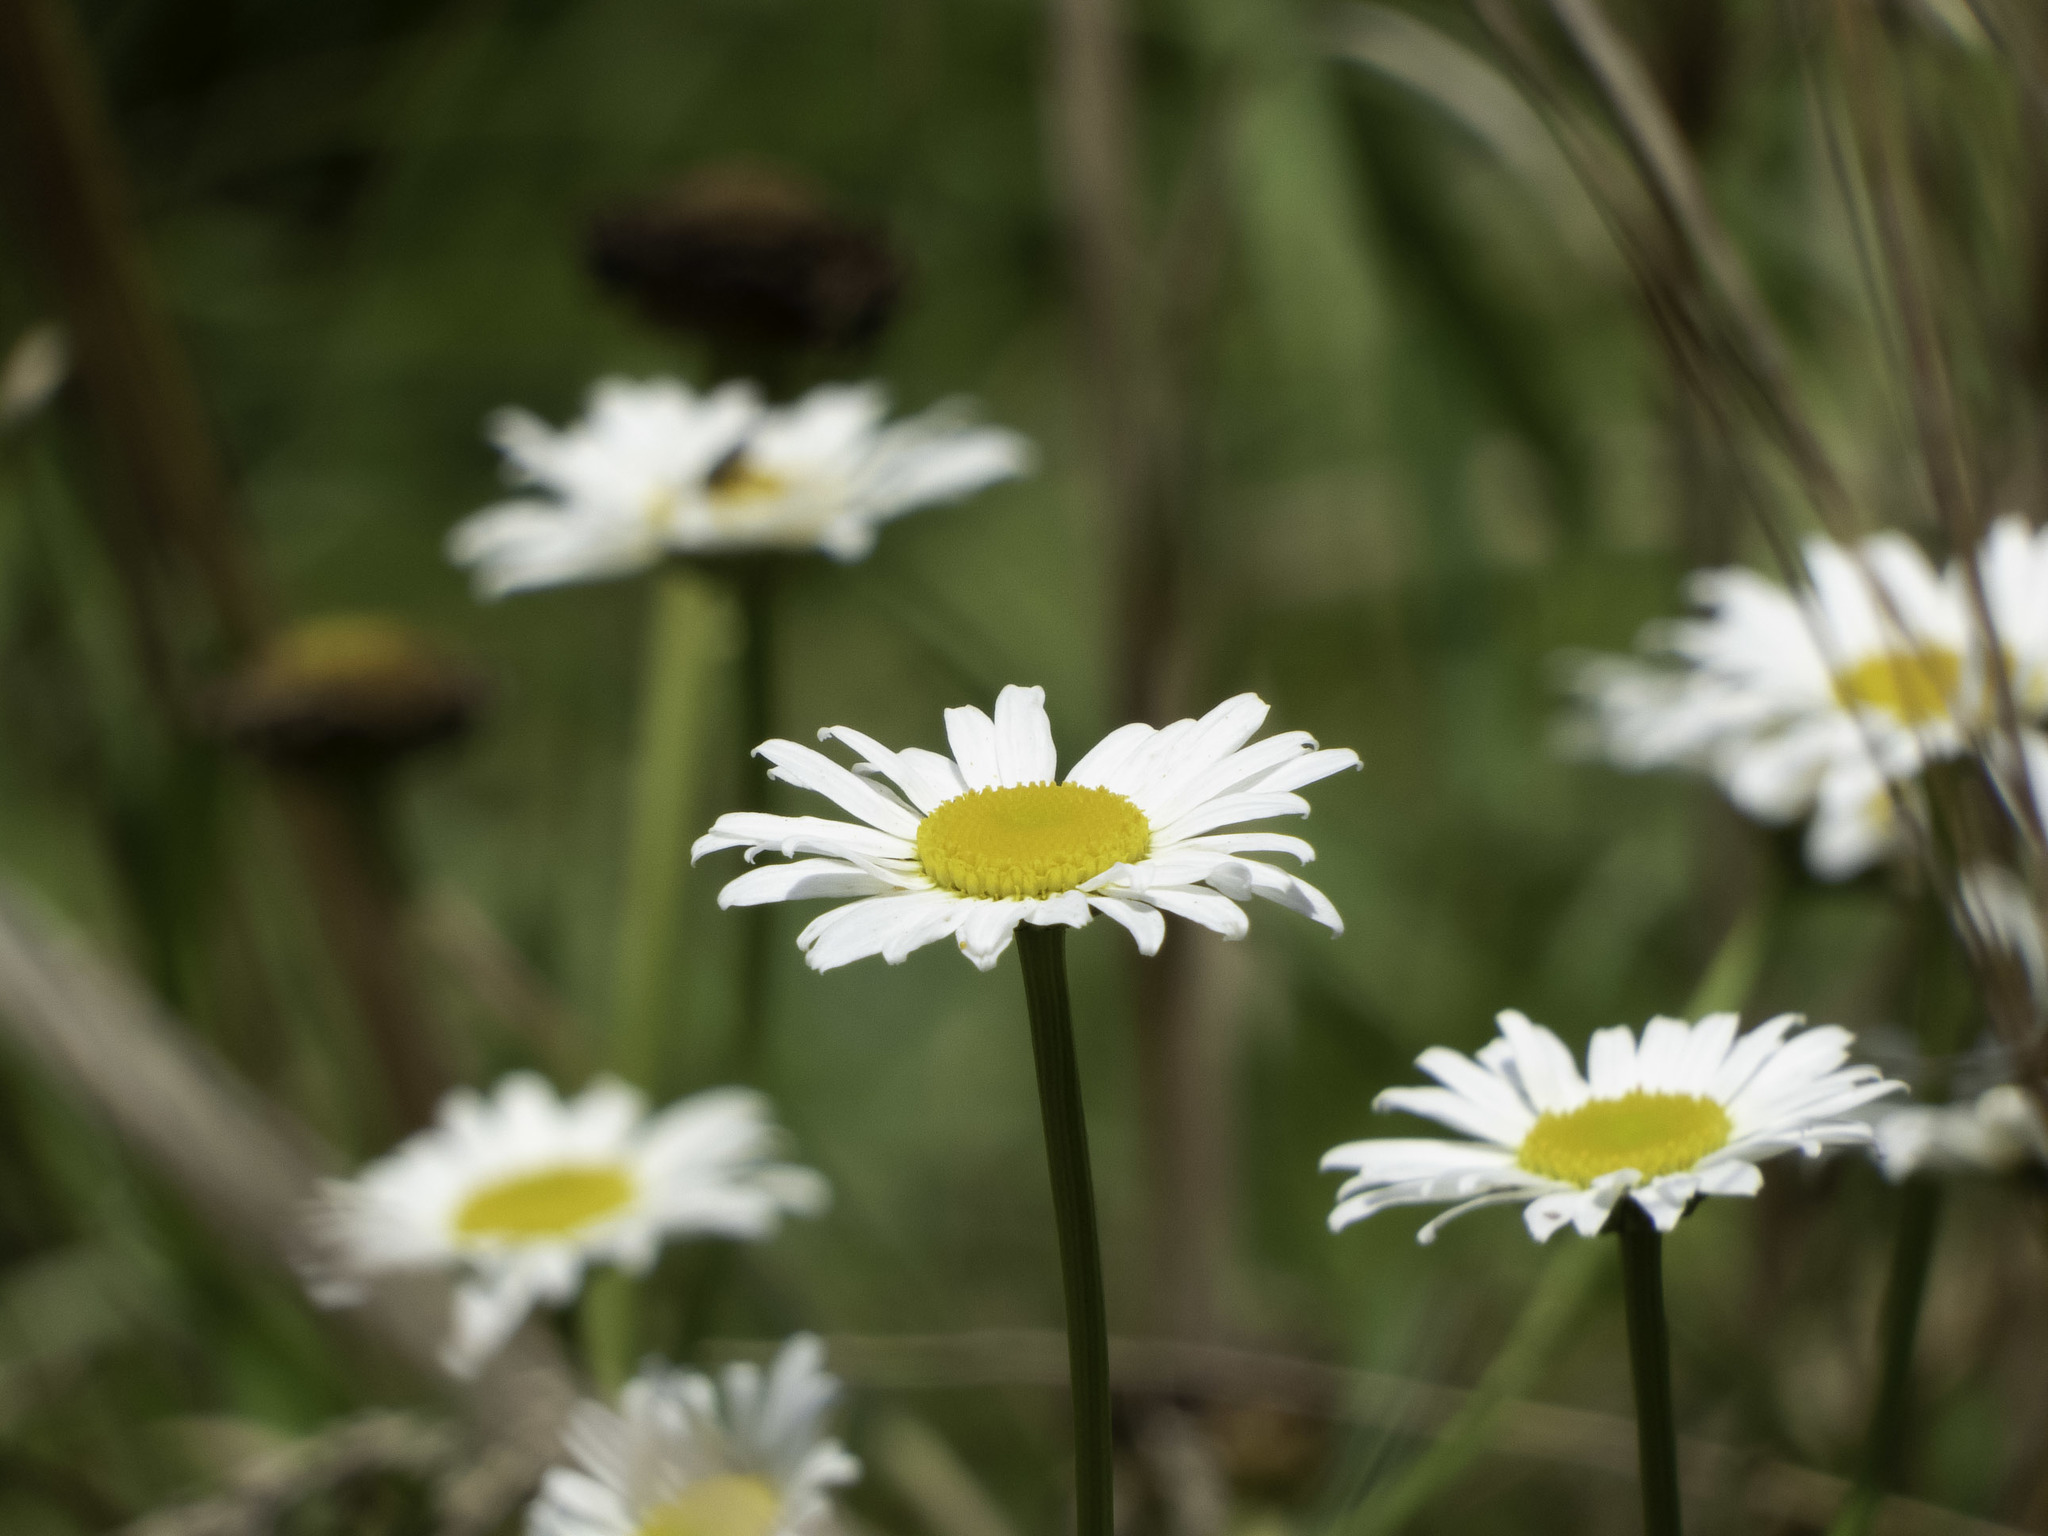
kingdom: Plantae
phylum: Tracheophyta
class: Magnoliopsida
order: Asterales
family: Asteraceae
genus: Leucanthemum
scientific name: Leucanthemum vulgare
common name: Oxeye daisy
